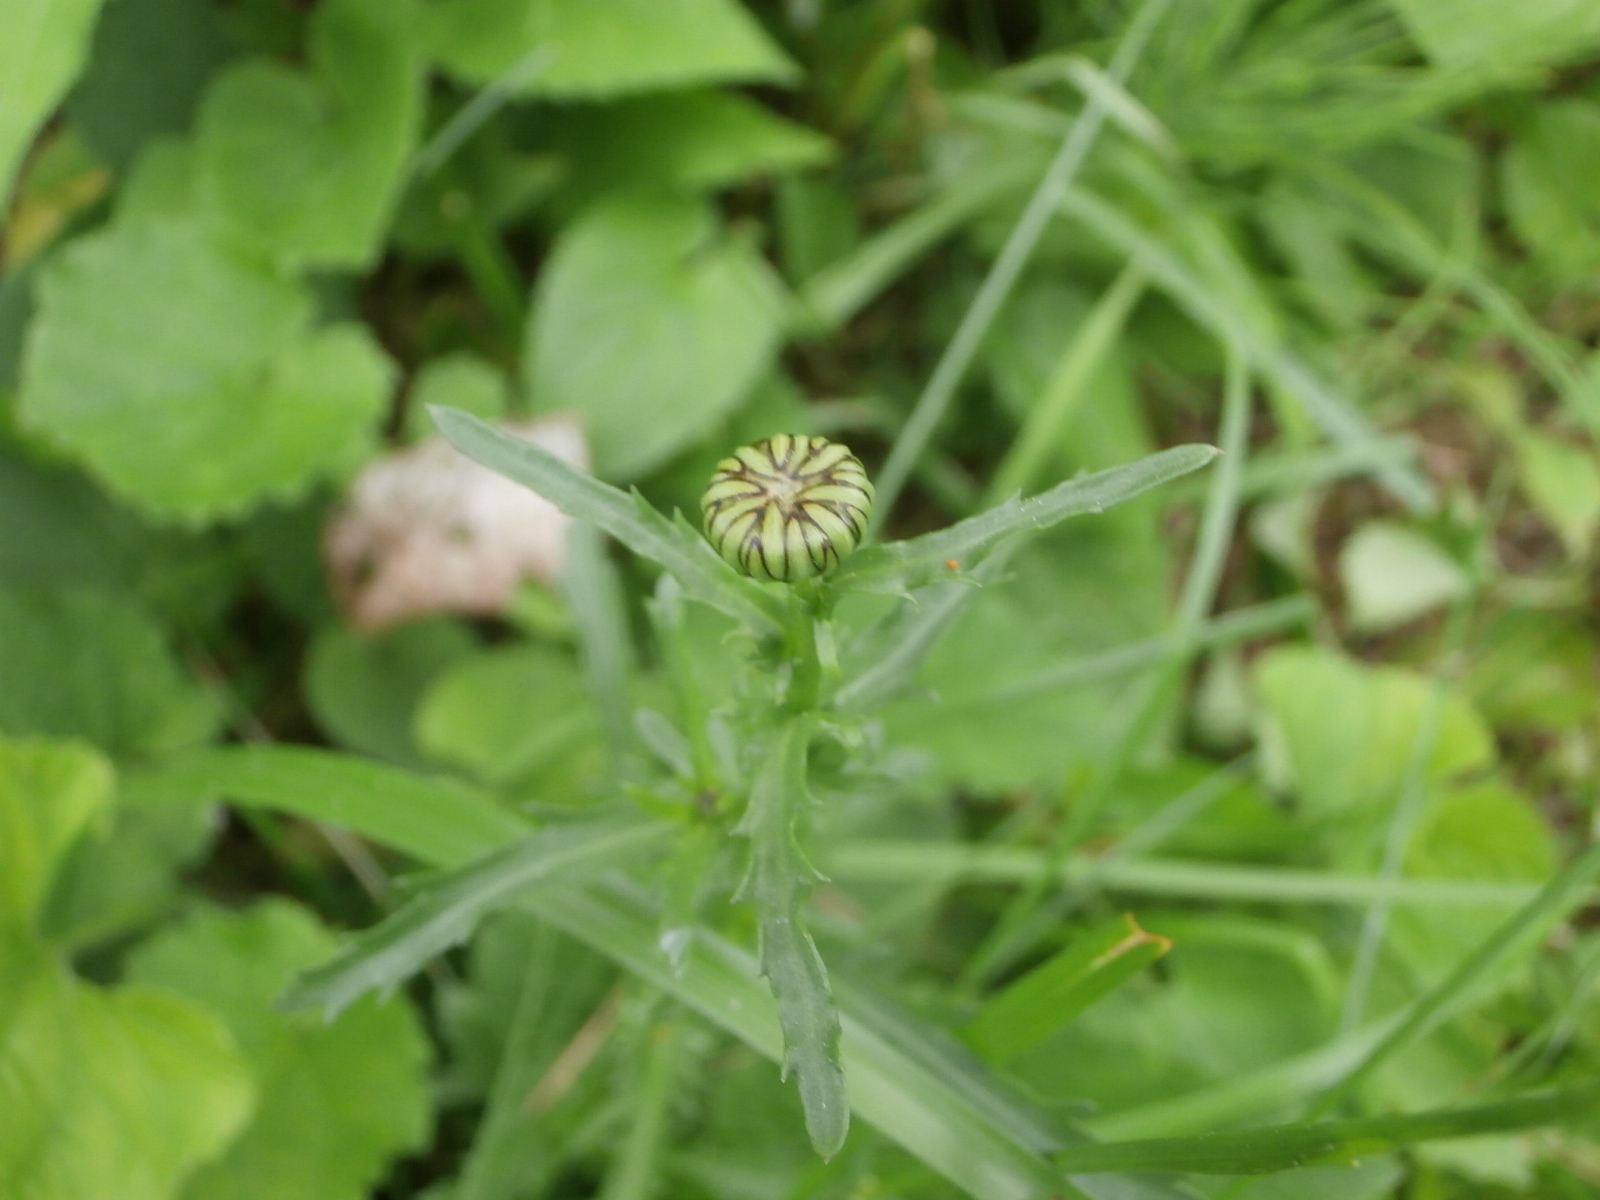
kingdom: Plantae
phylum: Tracheophyta
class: Magnoliopsida
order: Asterales
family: Asteraceae
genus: Leucanthemum
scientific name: Leucanthemum vulgare
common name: Oxeye daisy
